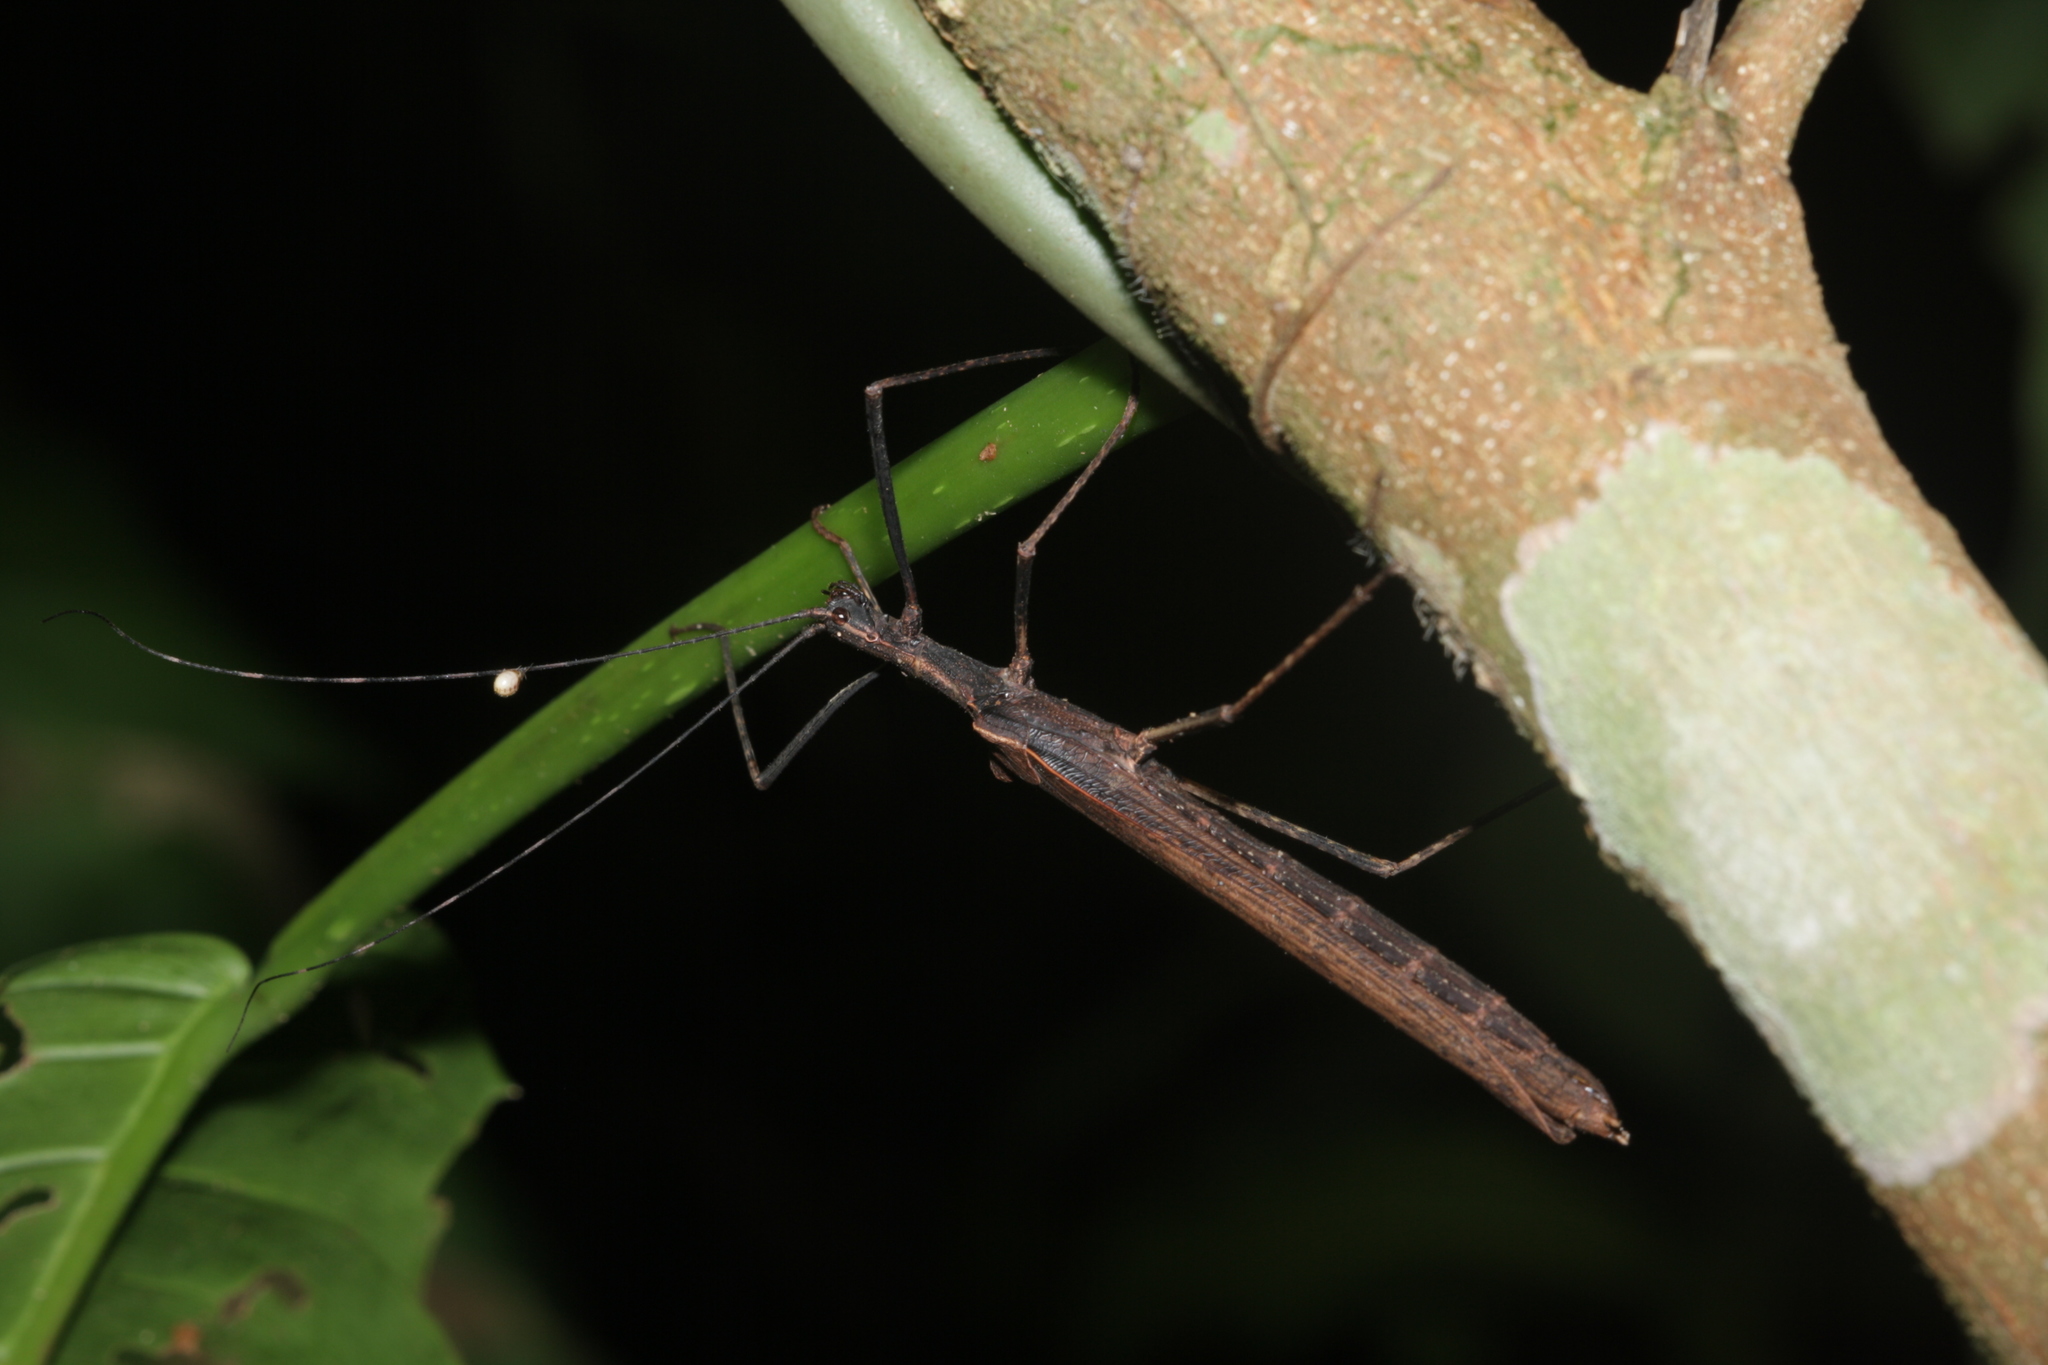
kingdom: Animalia
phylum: Arthropoda
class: Insecta
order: Phasmida
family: Pseudophasmatidae
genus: Pseudophasma
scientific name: Pseudophasma unicolor
